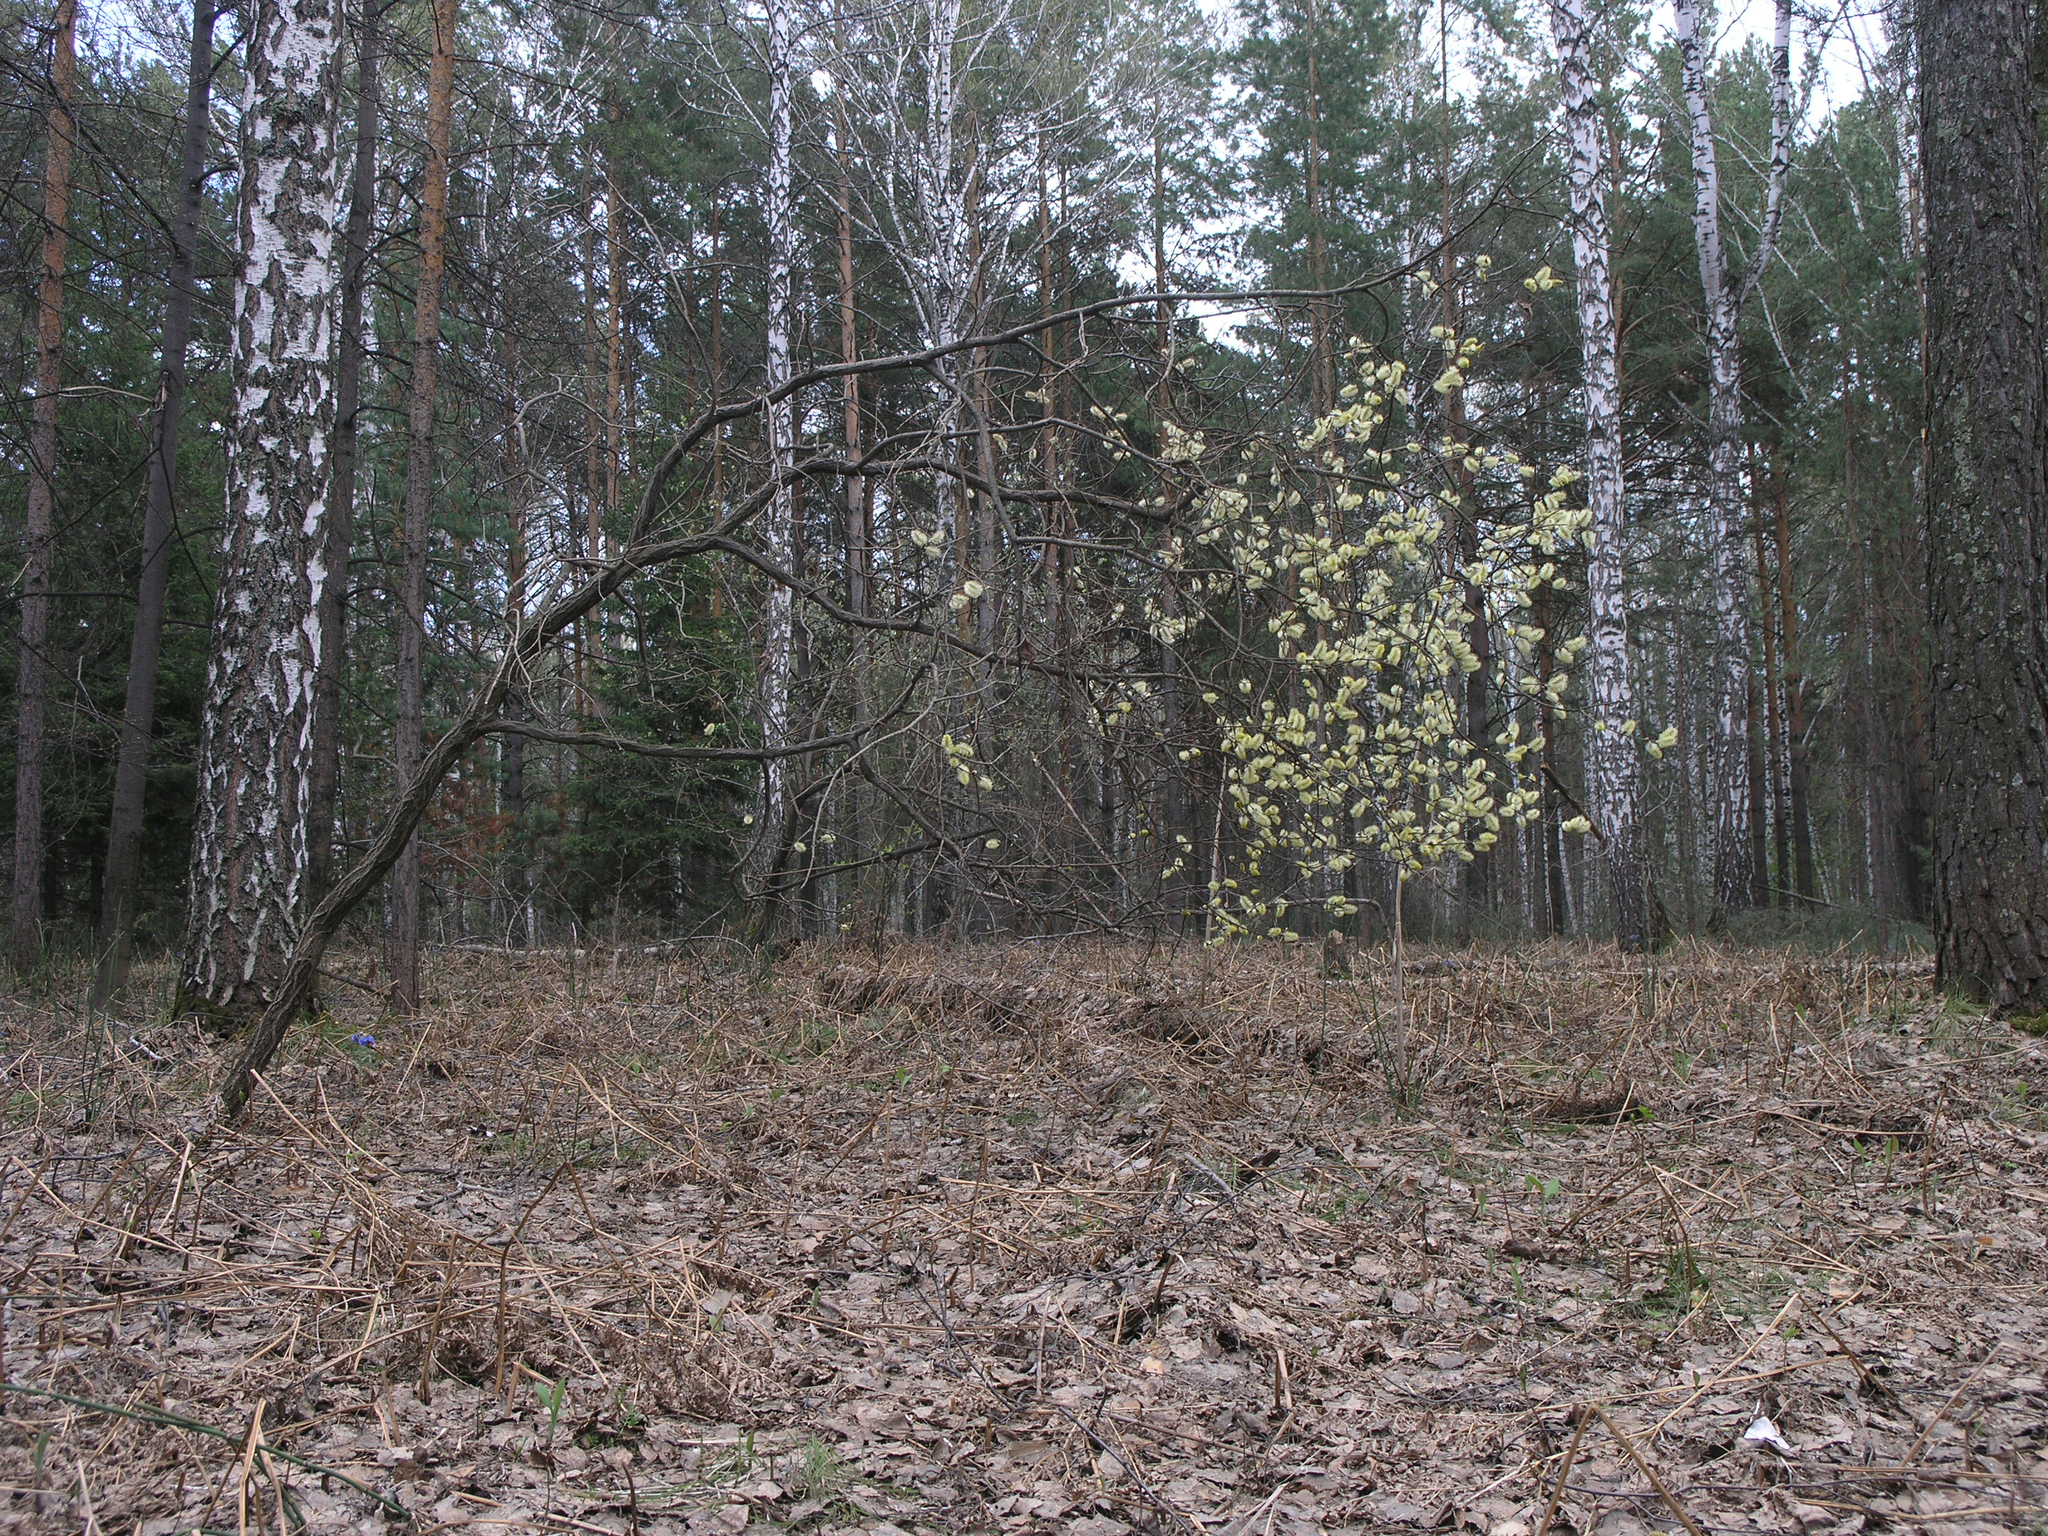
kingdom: Plantae
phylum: Tracheophyta
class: Magnoliopsida
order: Malpighiales
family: Salicaceae
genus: Salix
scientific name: Salix caprea
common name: Goat willow
